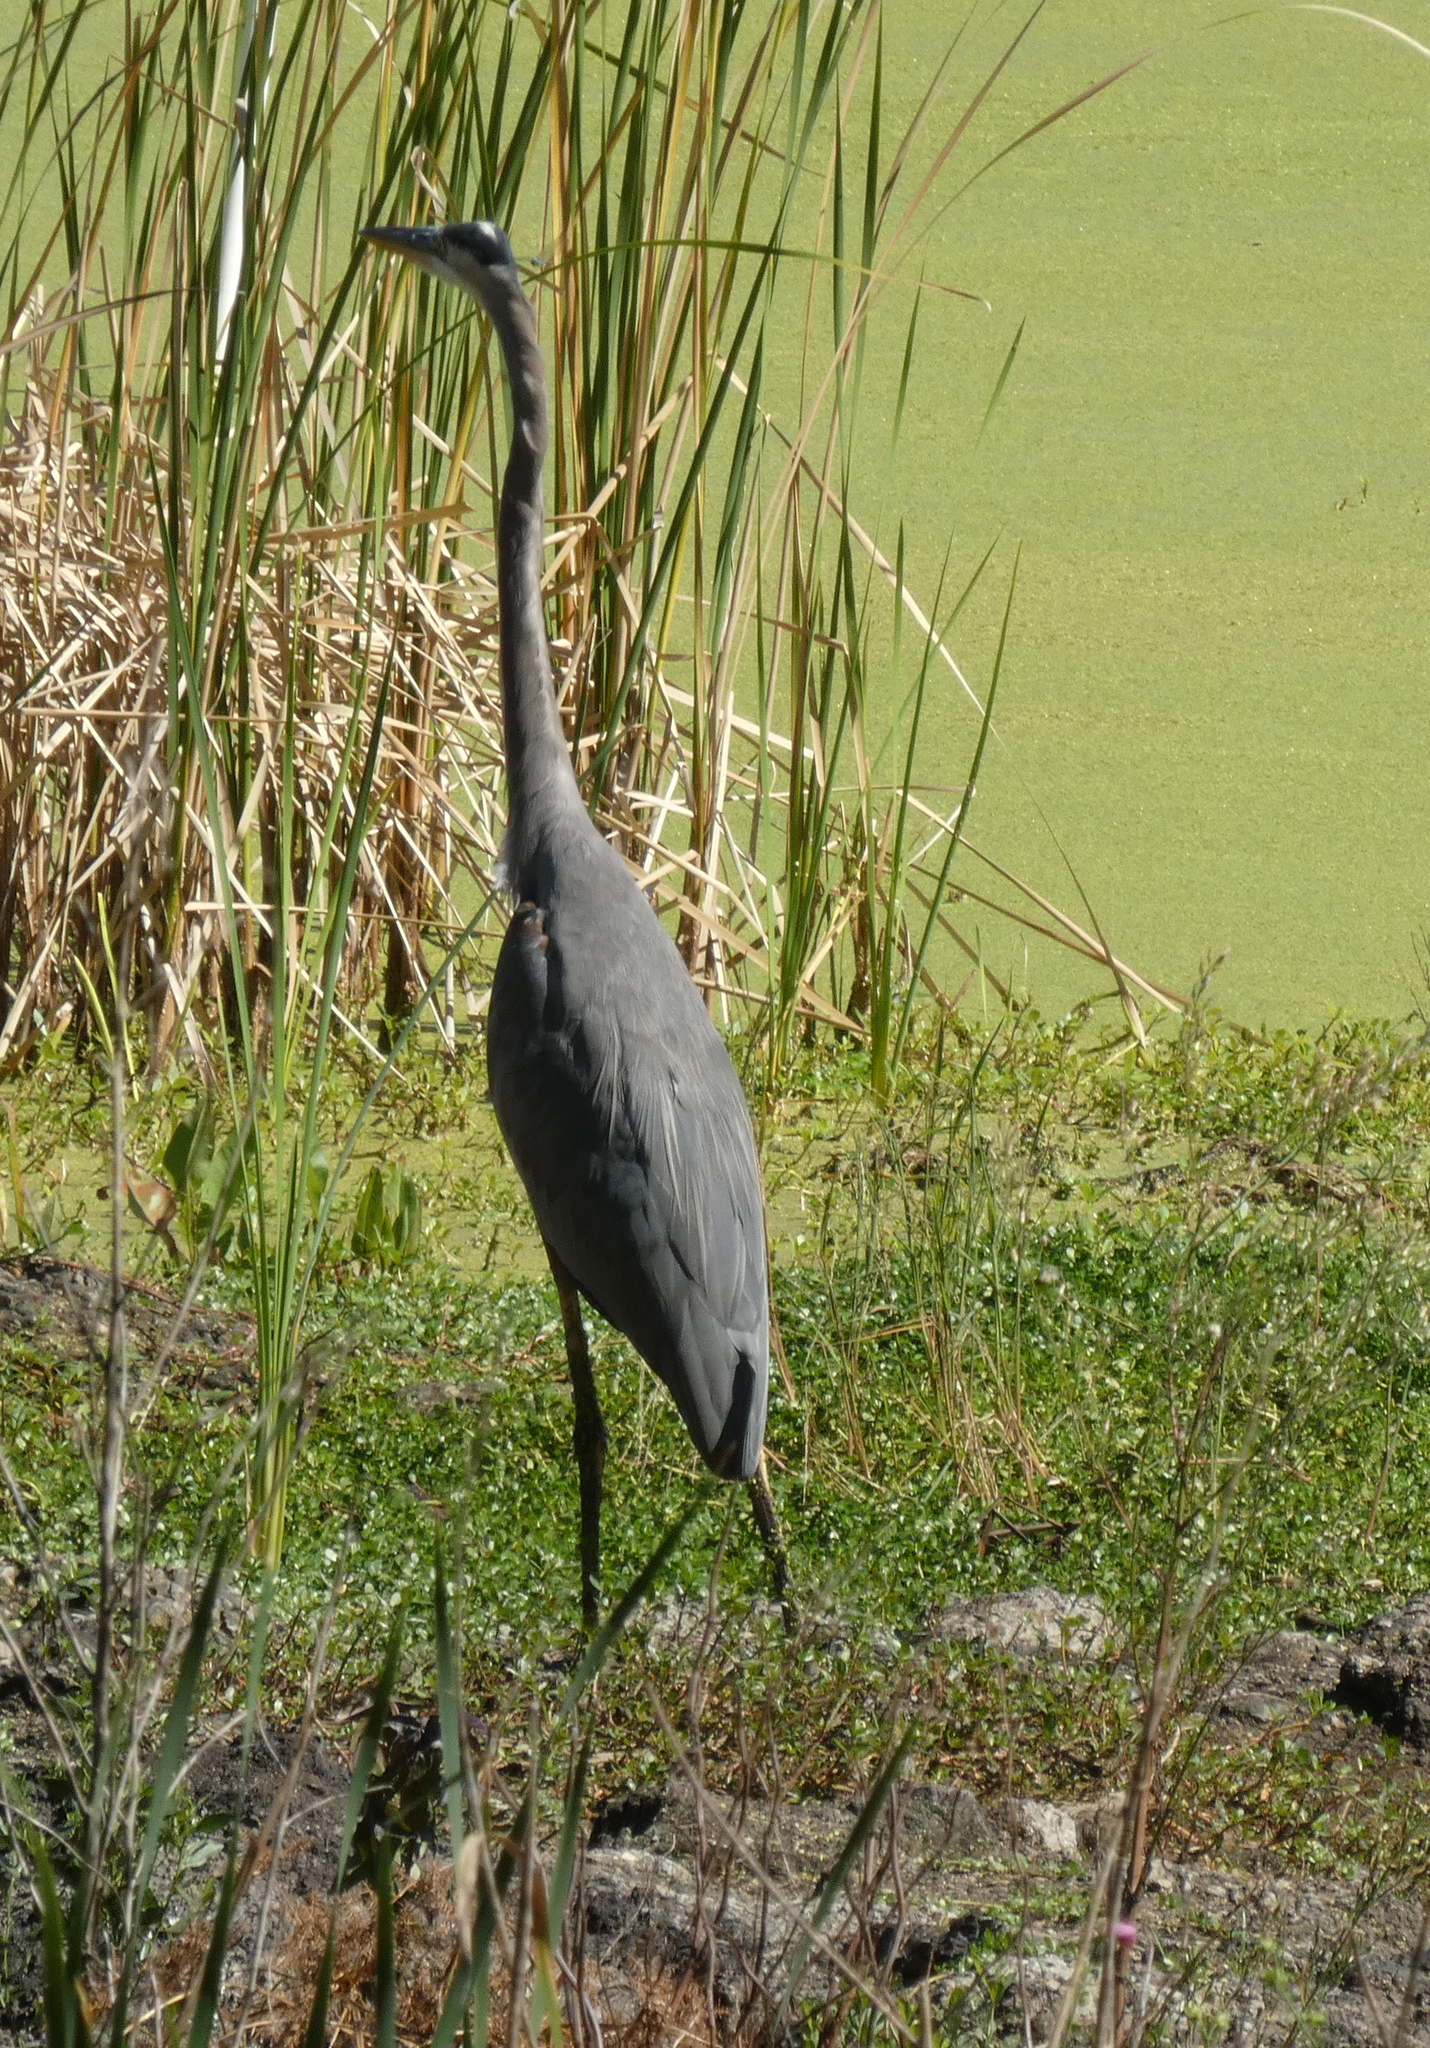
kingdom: Animalia
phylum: Chordata
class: Aves
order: Pelecaniformes
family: Ardeidae
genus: Ardea
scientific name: Ardea herodias
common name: Great blue heron
